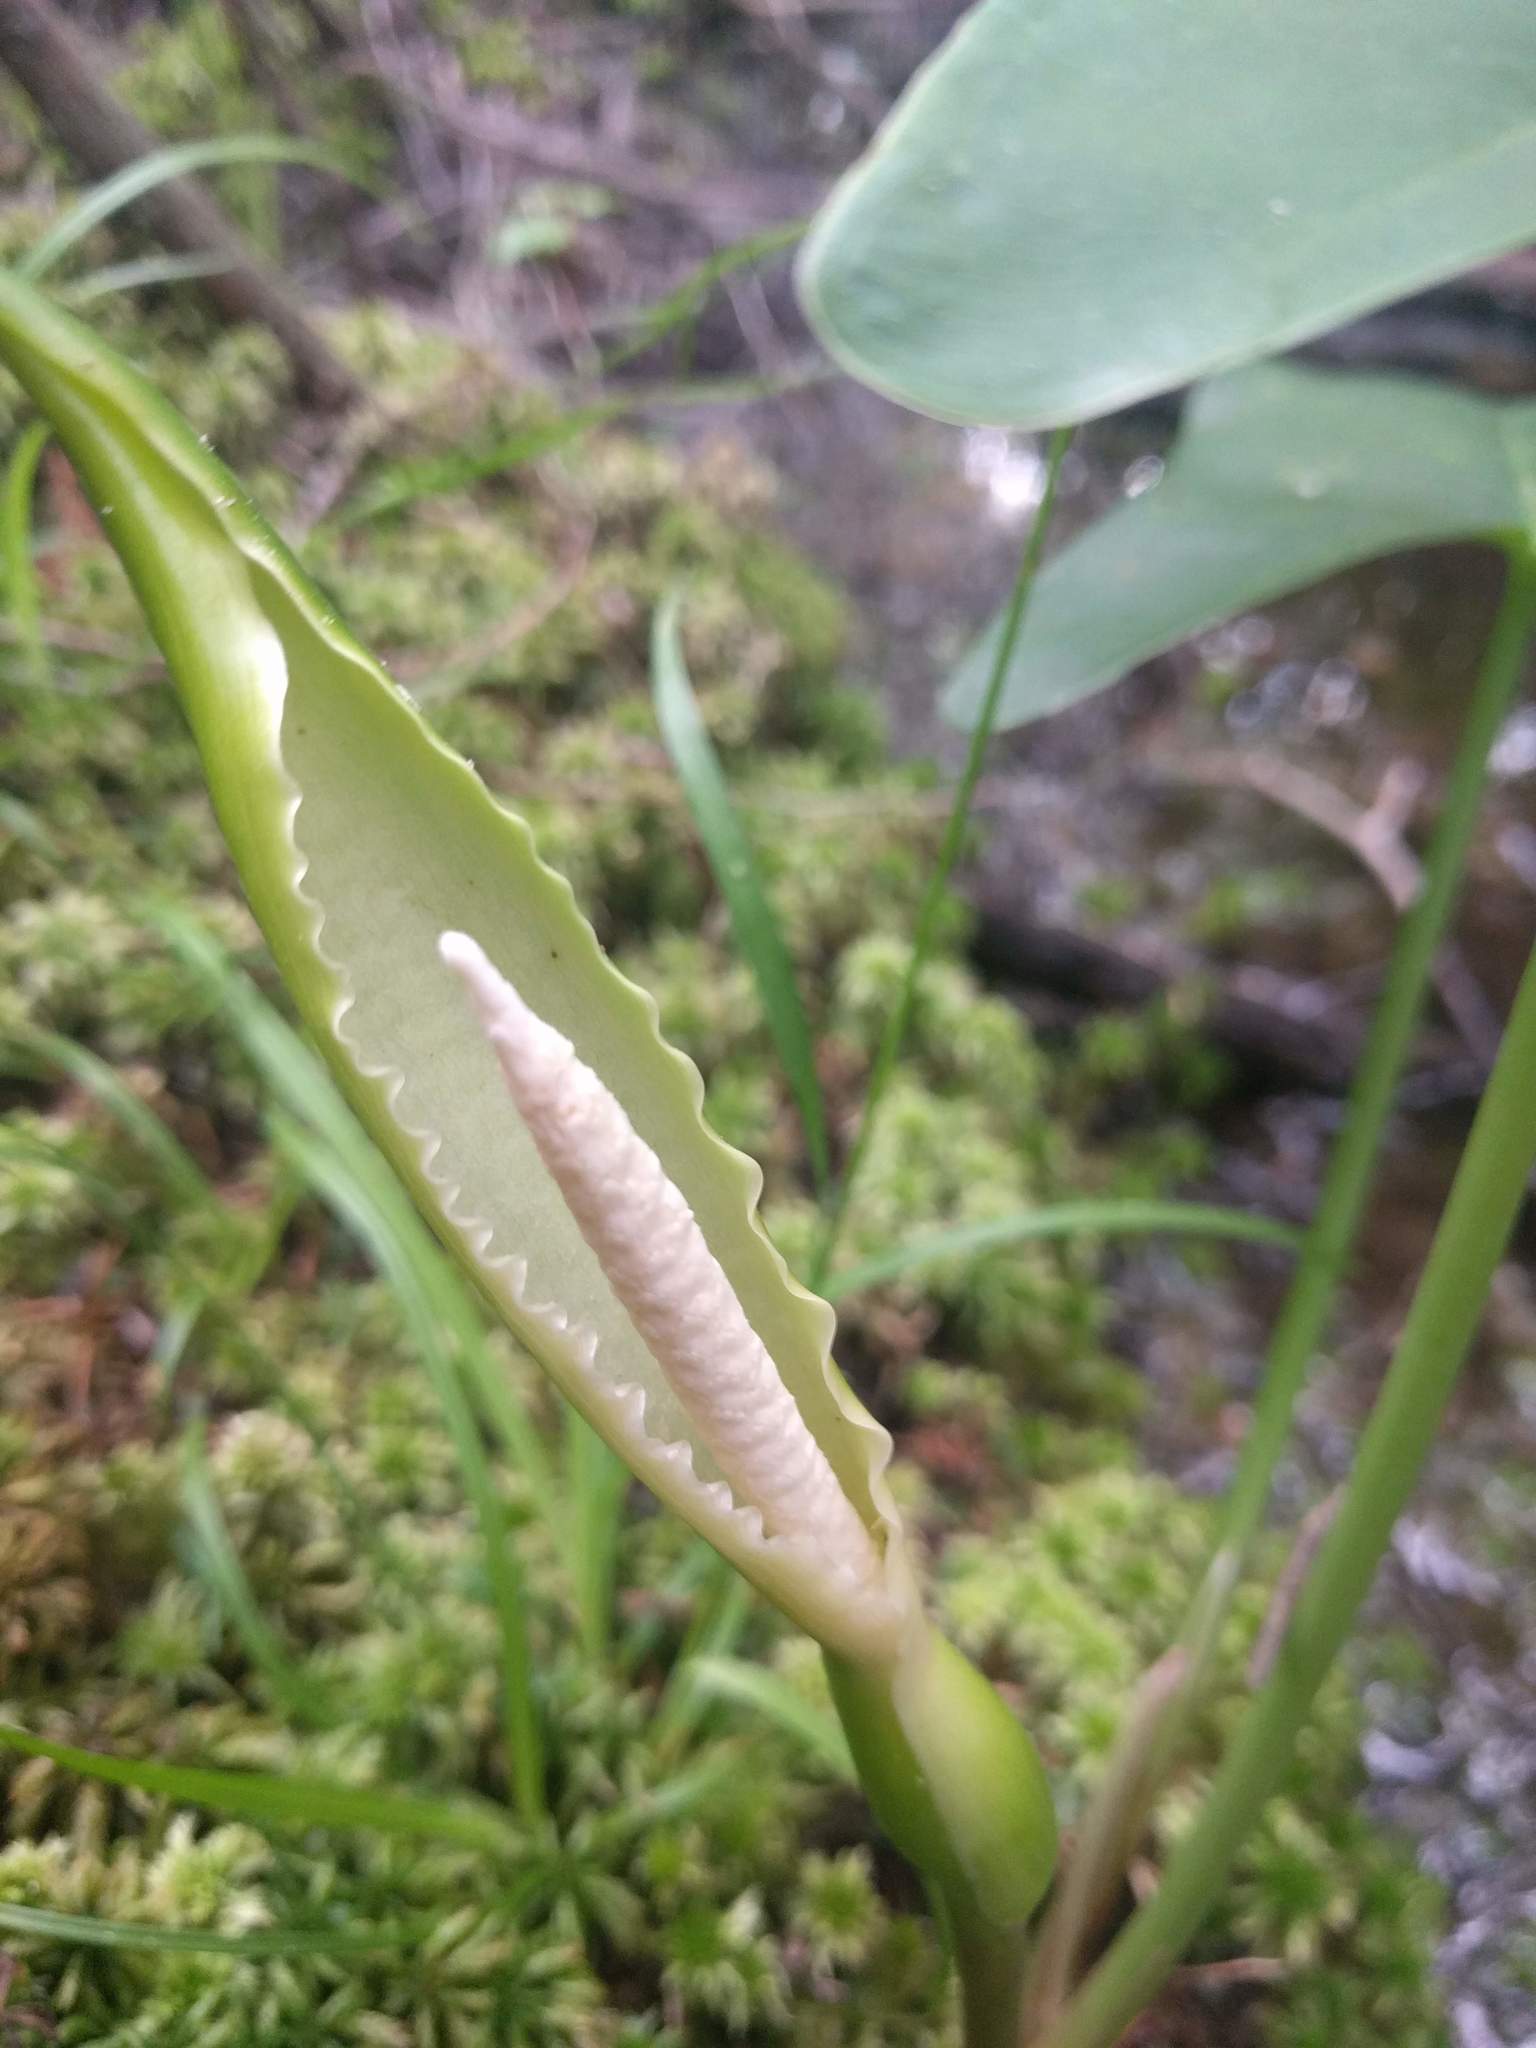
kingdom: Plantae
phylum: Tracheophyta
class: Liliopsida
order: Alismatales
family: Araceae
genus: Peltandra
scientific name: Peltandra virginica
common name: Arrow arum
